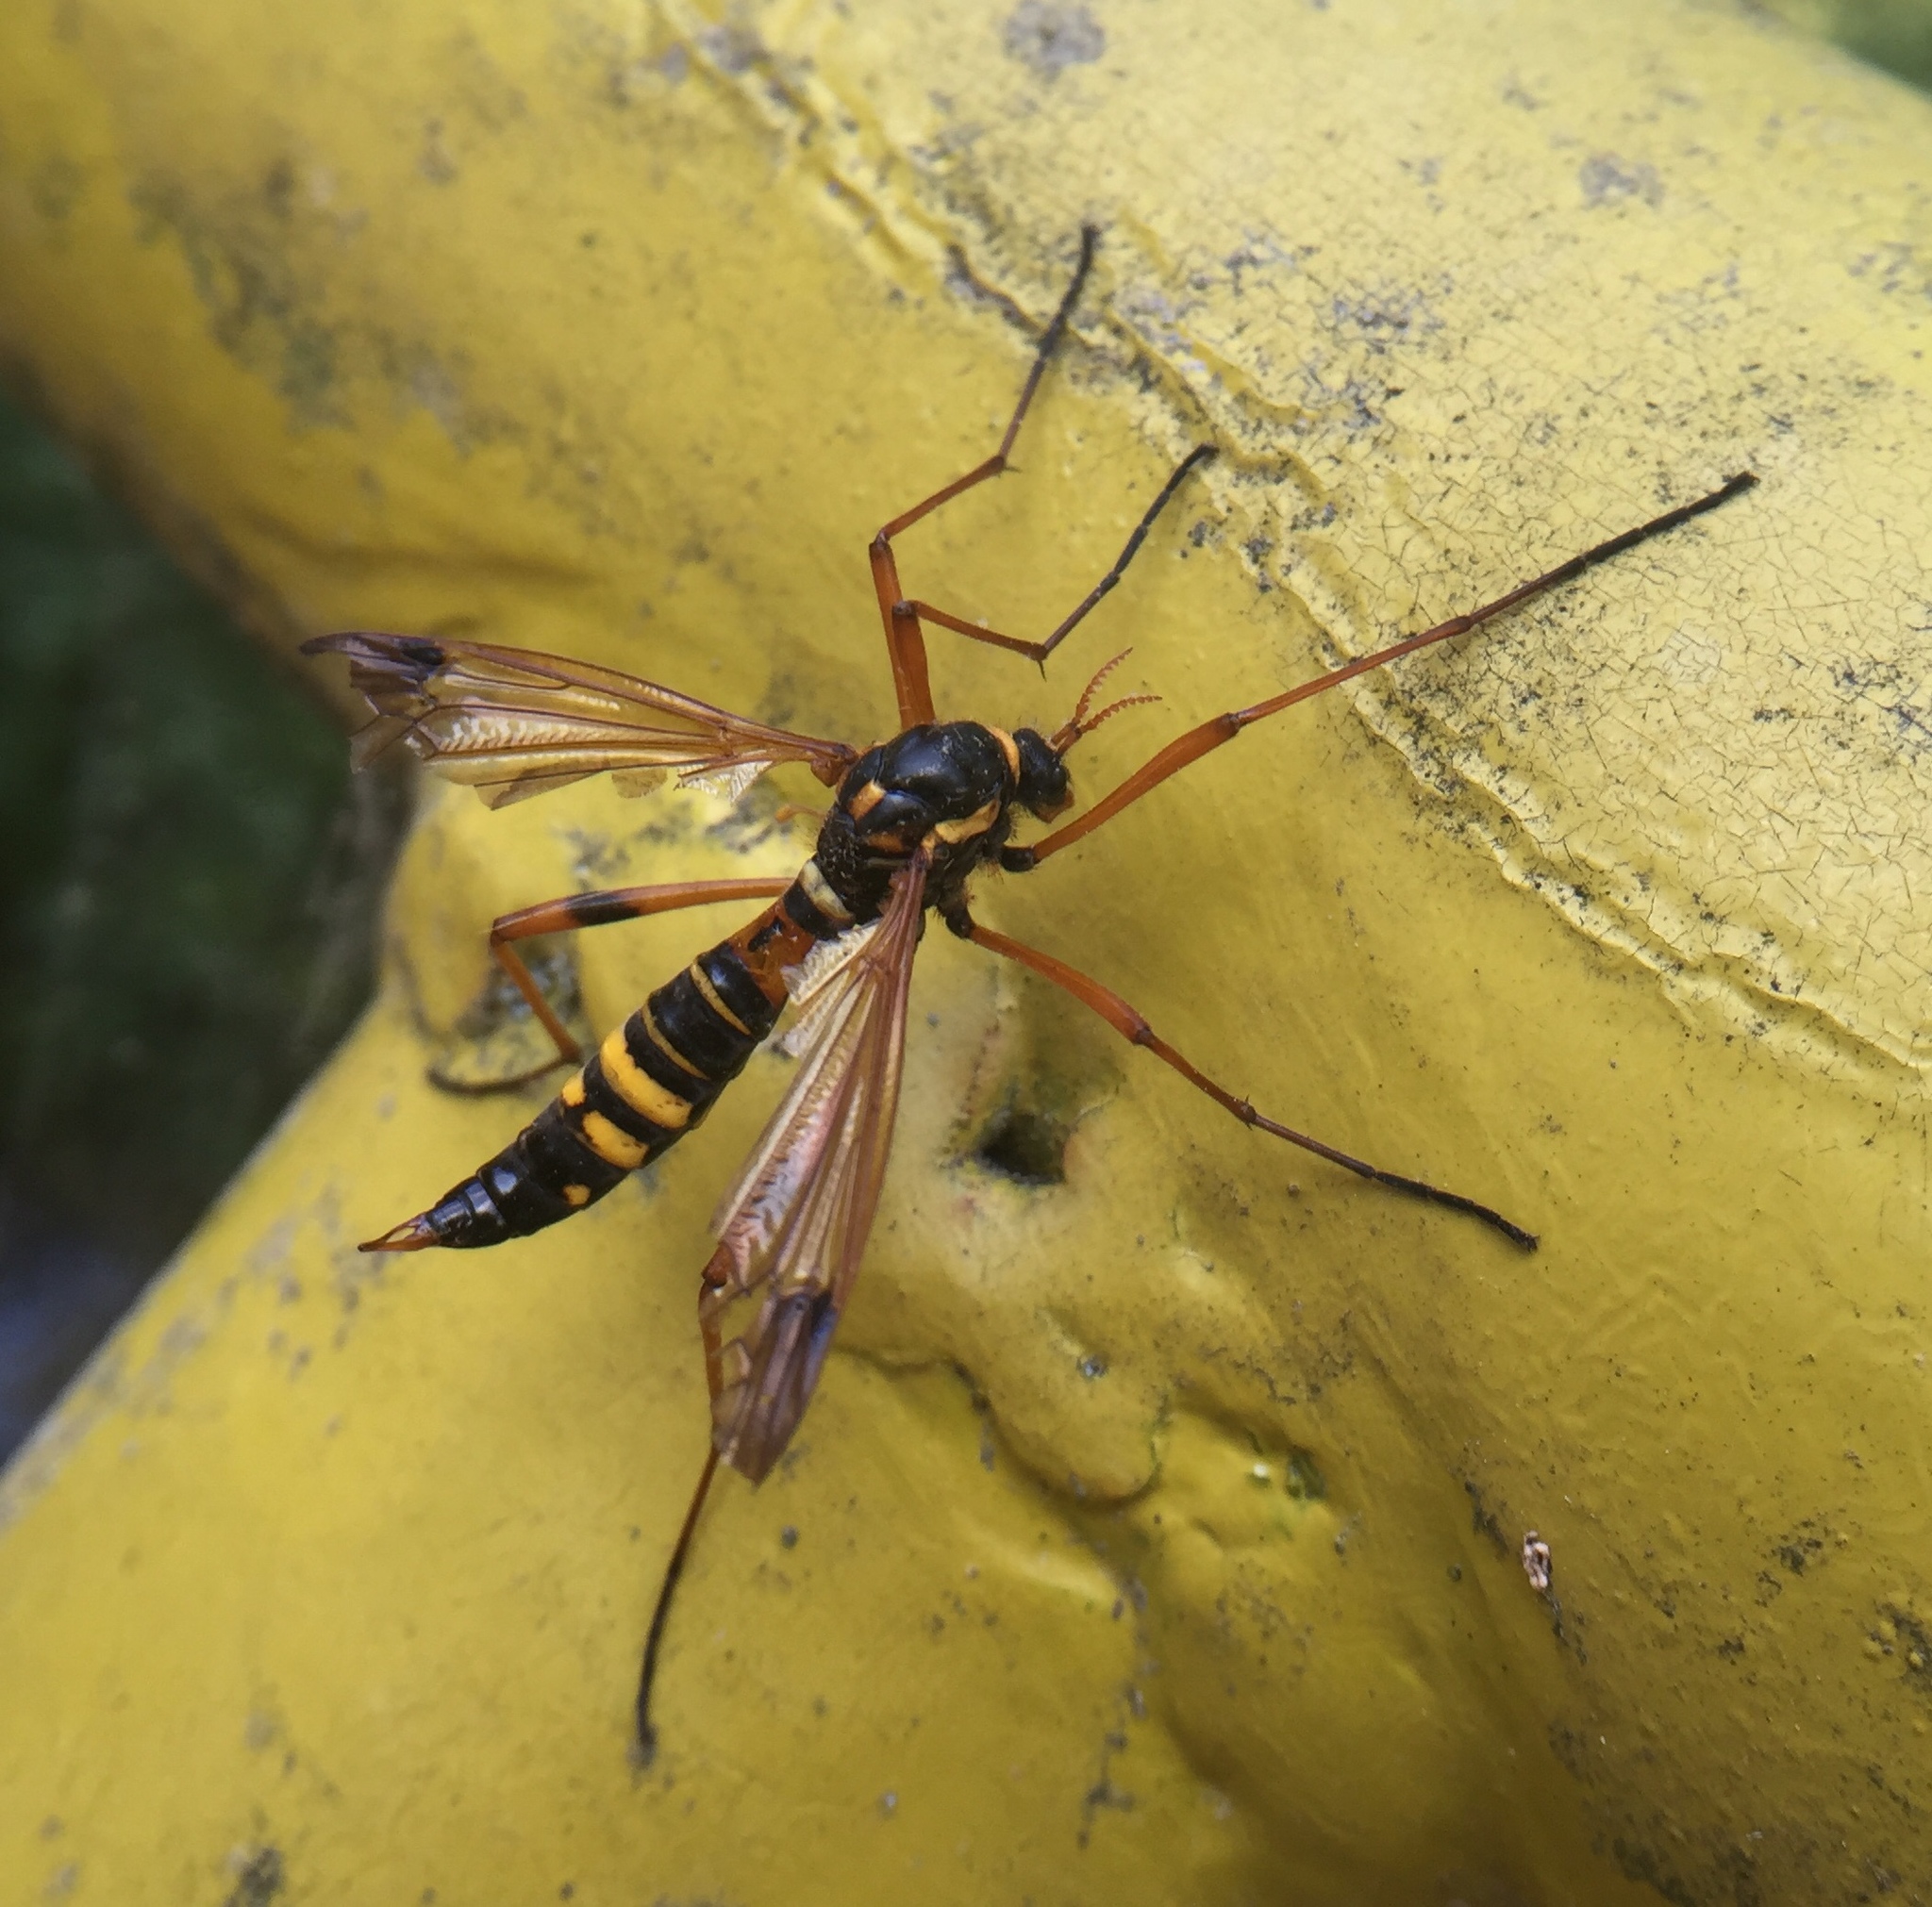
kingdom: Animalia
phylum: Arthropoda
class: Insecta
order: Diptera
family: Tipulidae
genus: Ctenophora
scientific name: Ctenophora elegans
